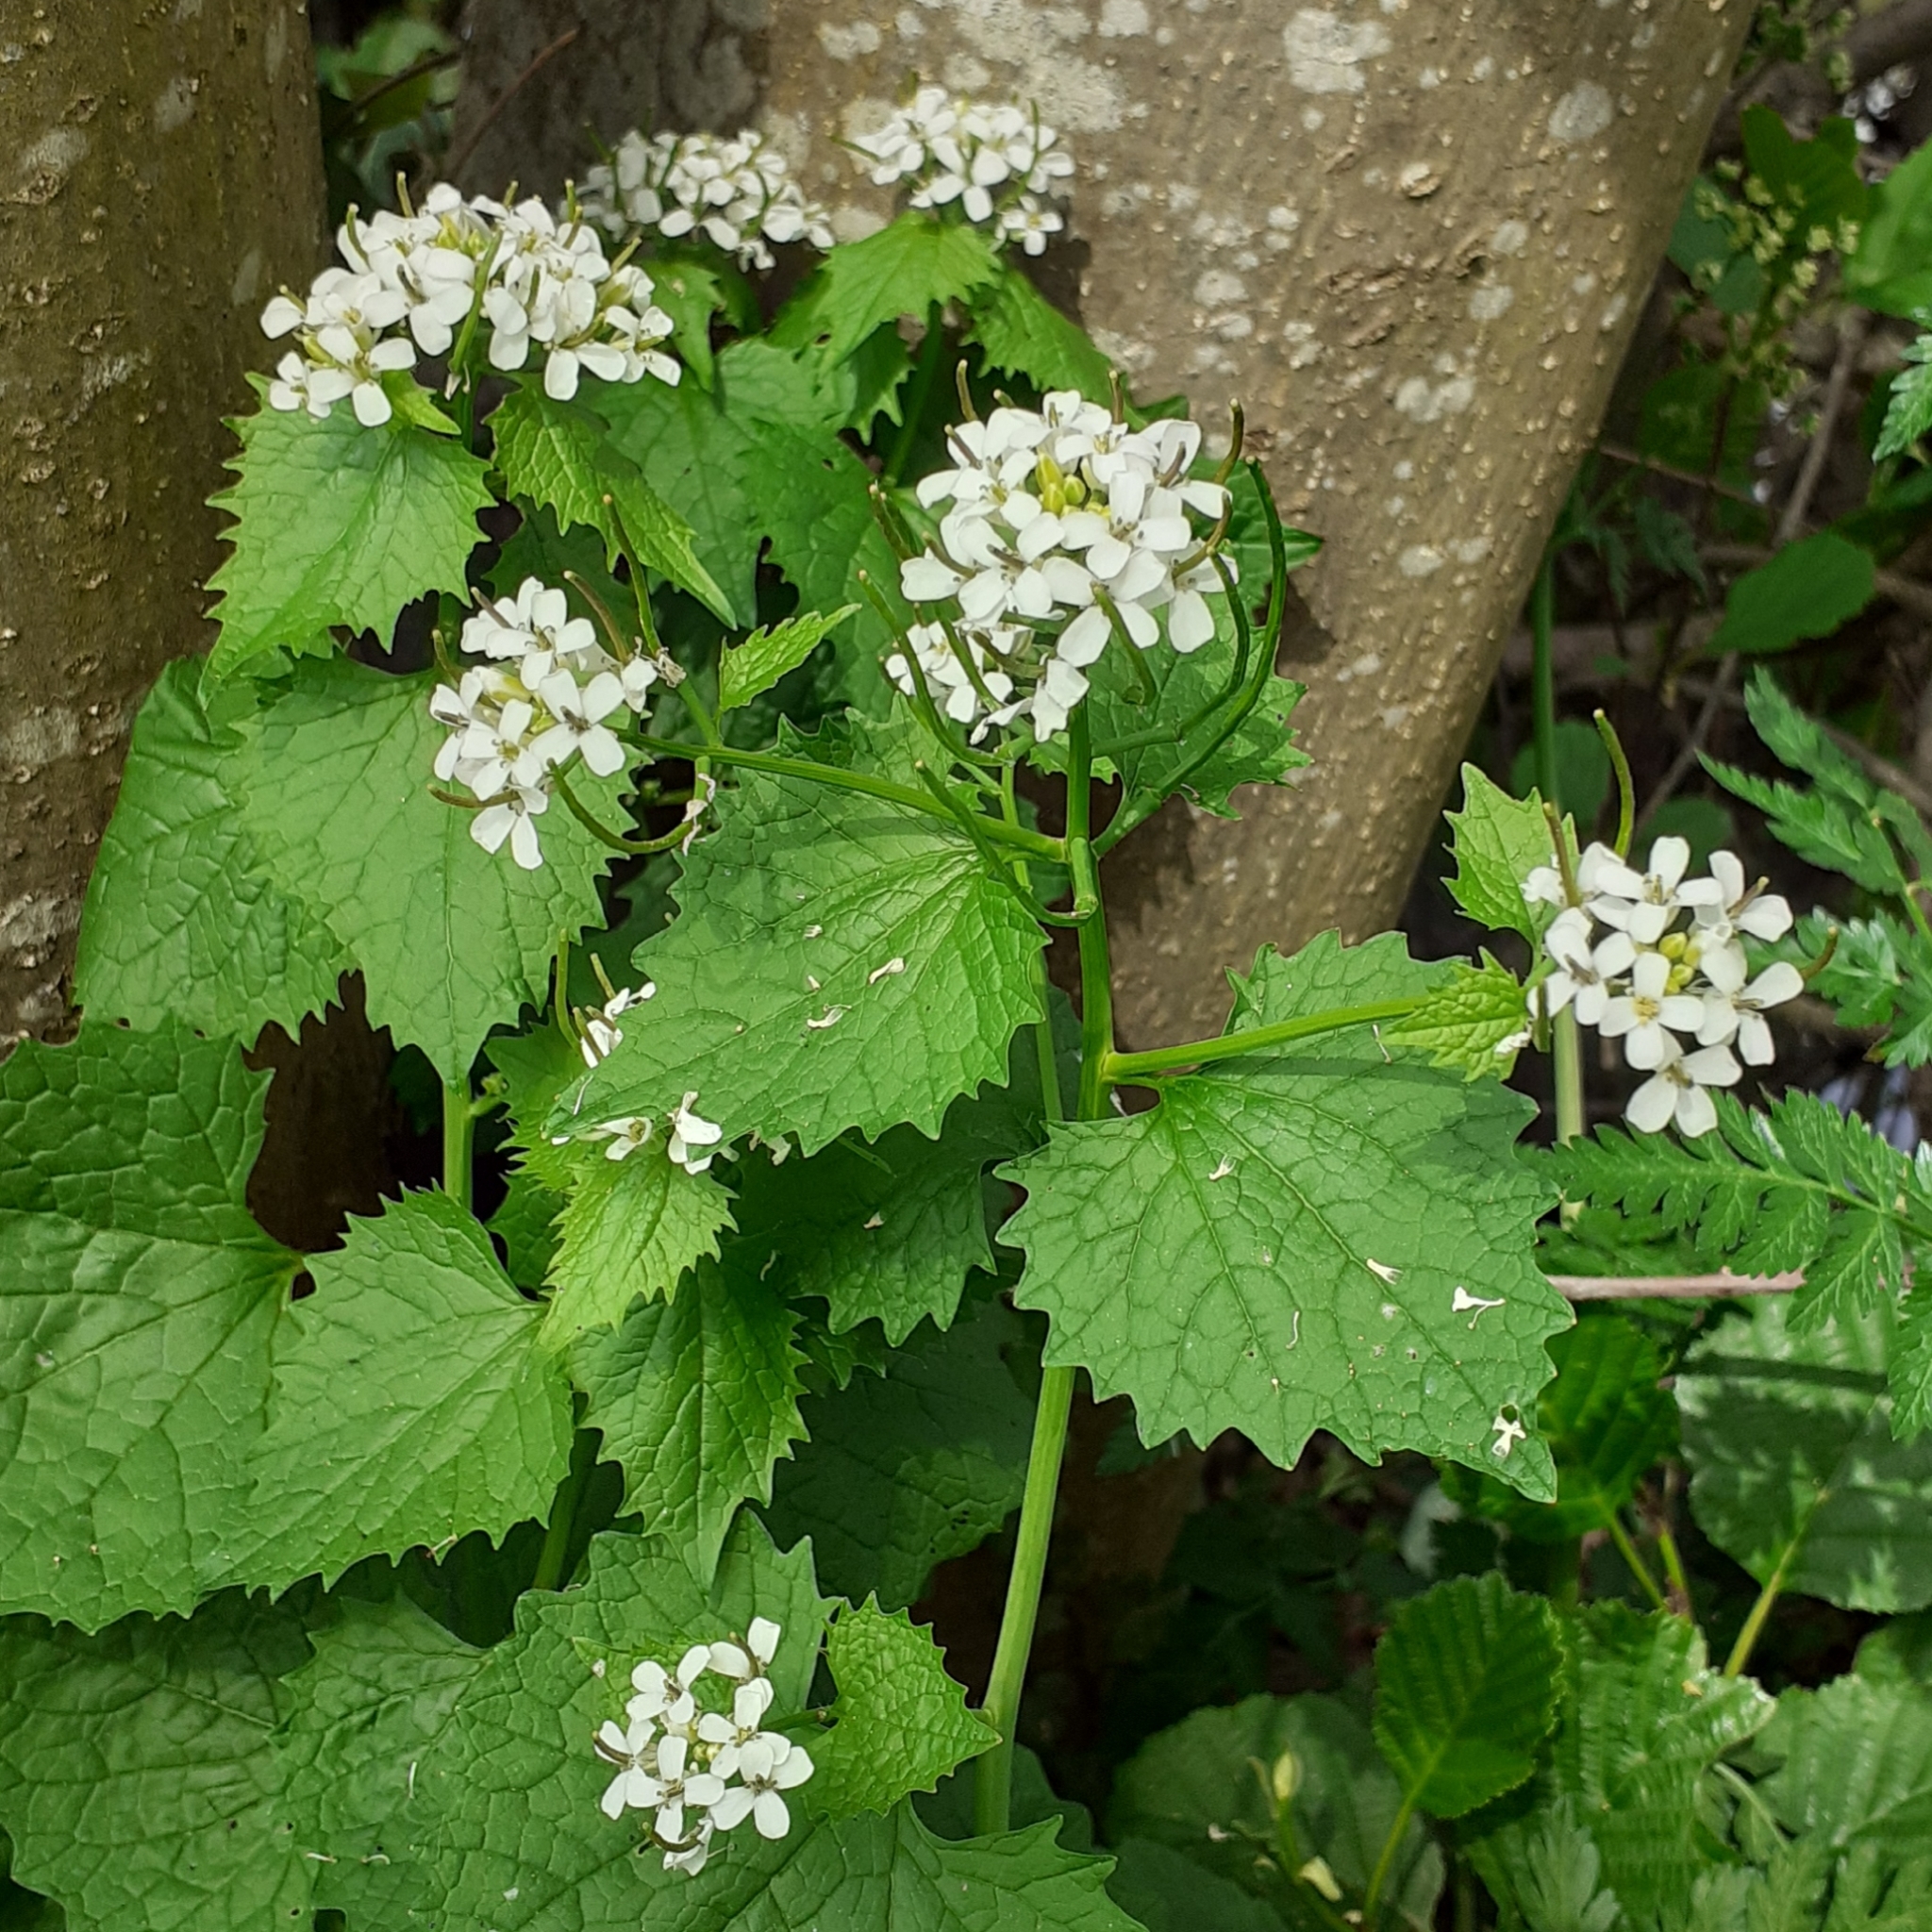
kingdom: Plantae
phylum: Tracheophyta
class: Magnoliopsida
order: Brassicales
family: Brassicaceae
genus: Alliaria
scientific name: Alliaria petiolata
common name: Garlic mustard
